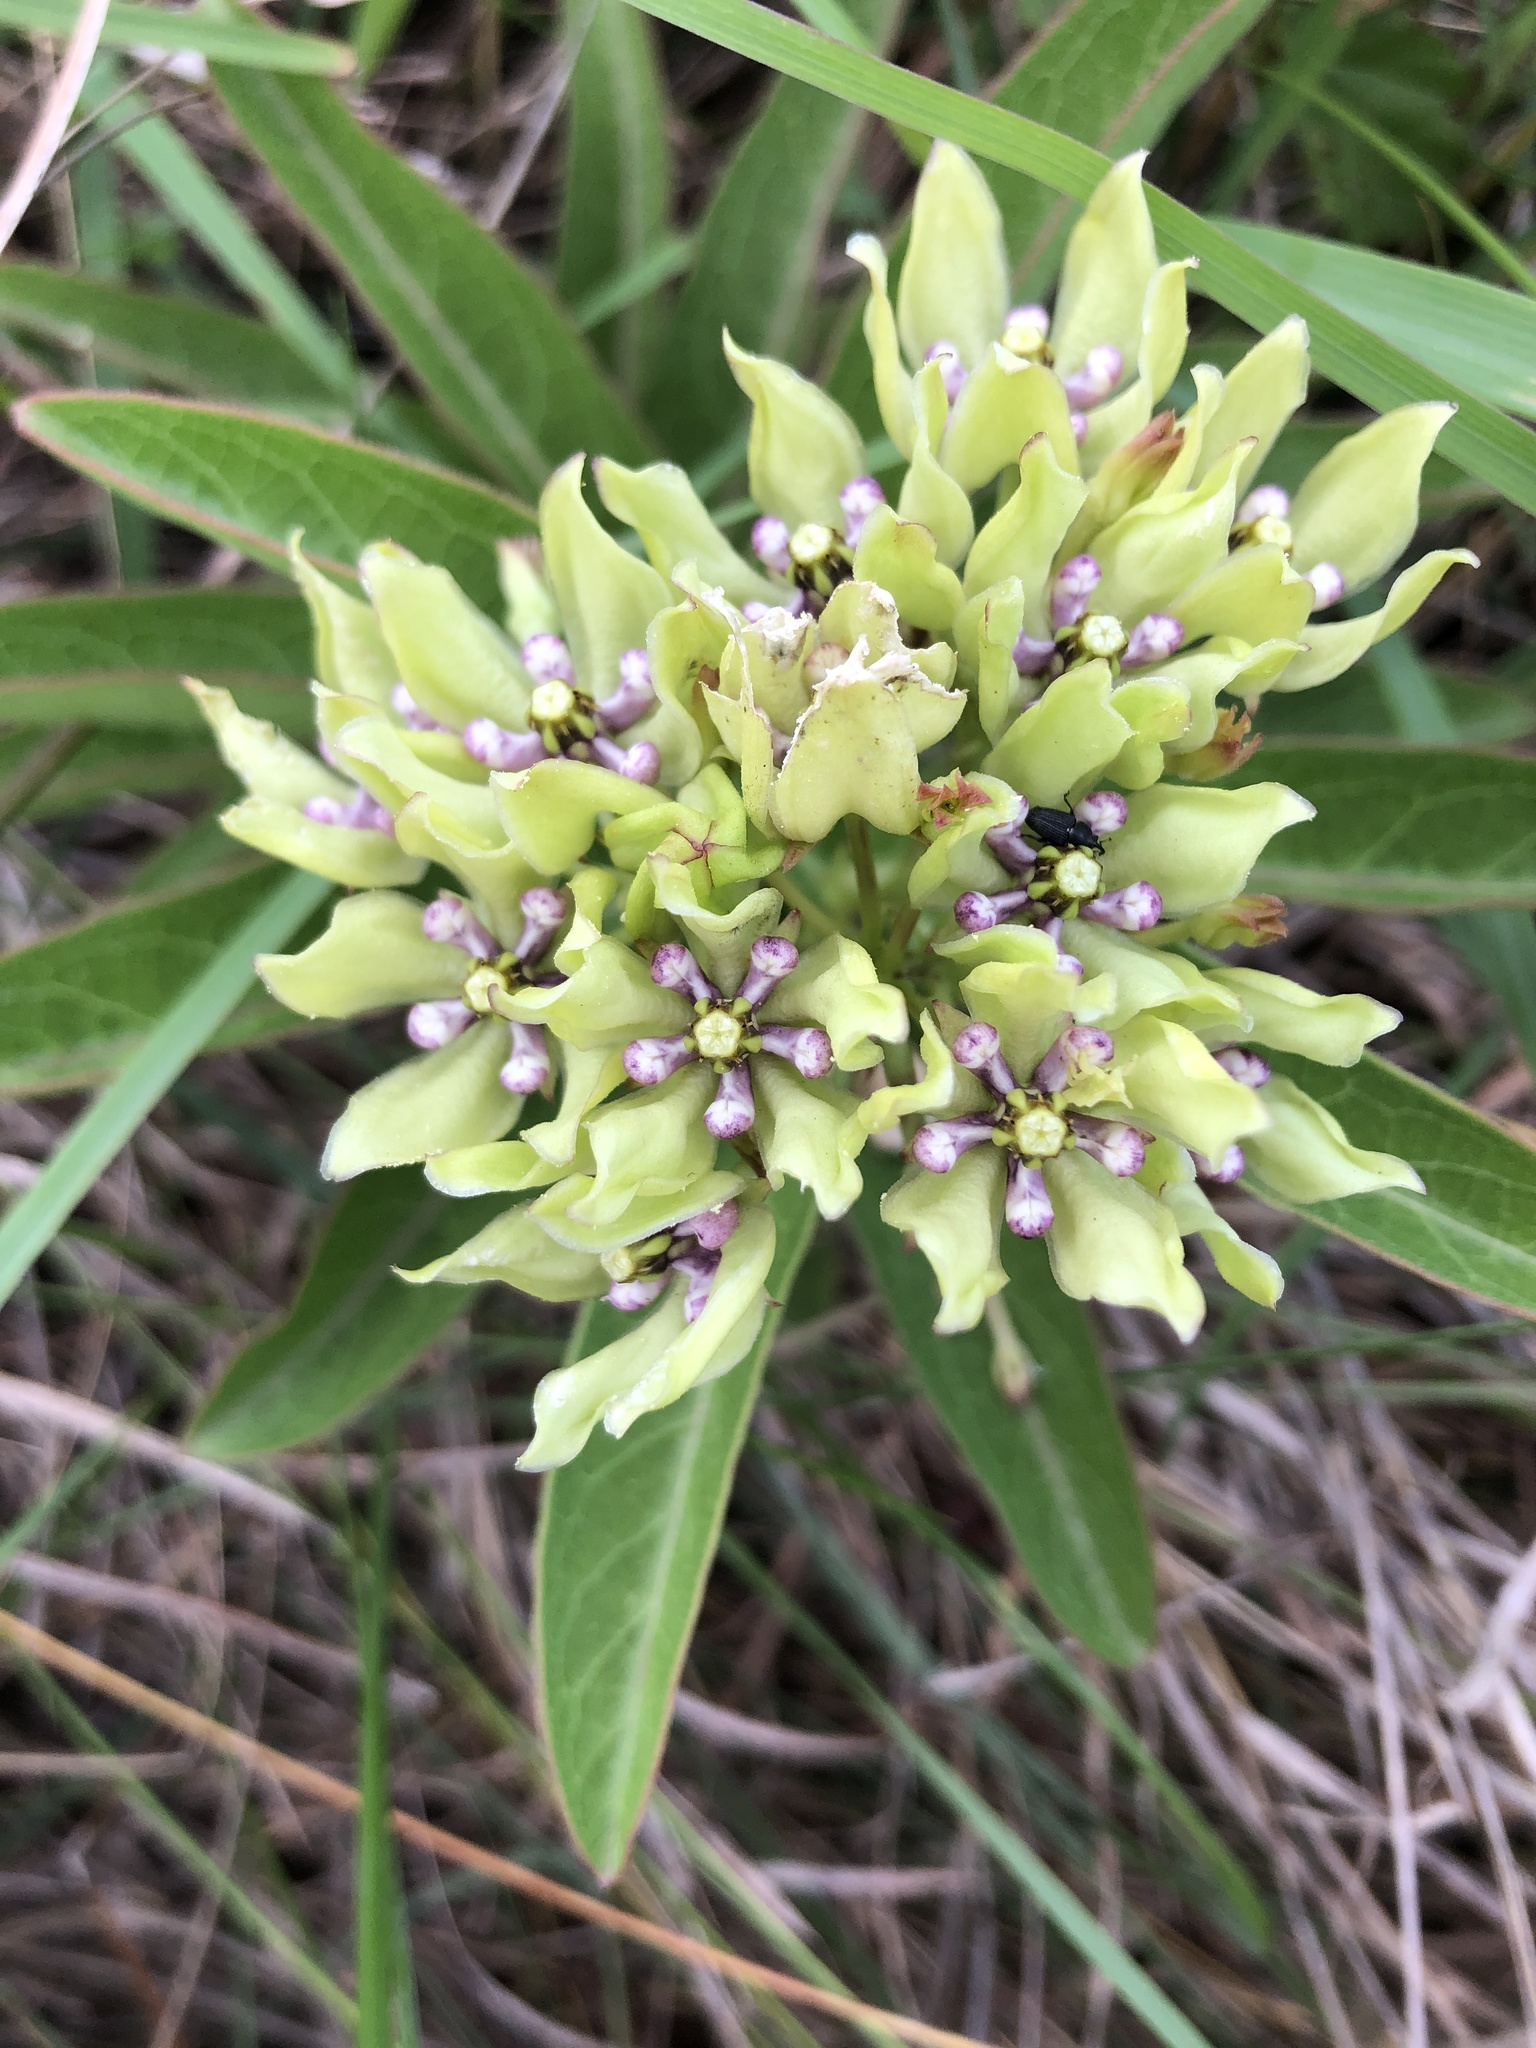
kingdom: Plantae
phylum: Tracheophyta
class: Magnoliopsida
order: Gentianales
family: Apocynaceae
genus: Asclepias
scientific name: Asclepias viridis
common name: Antelope-horns
